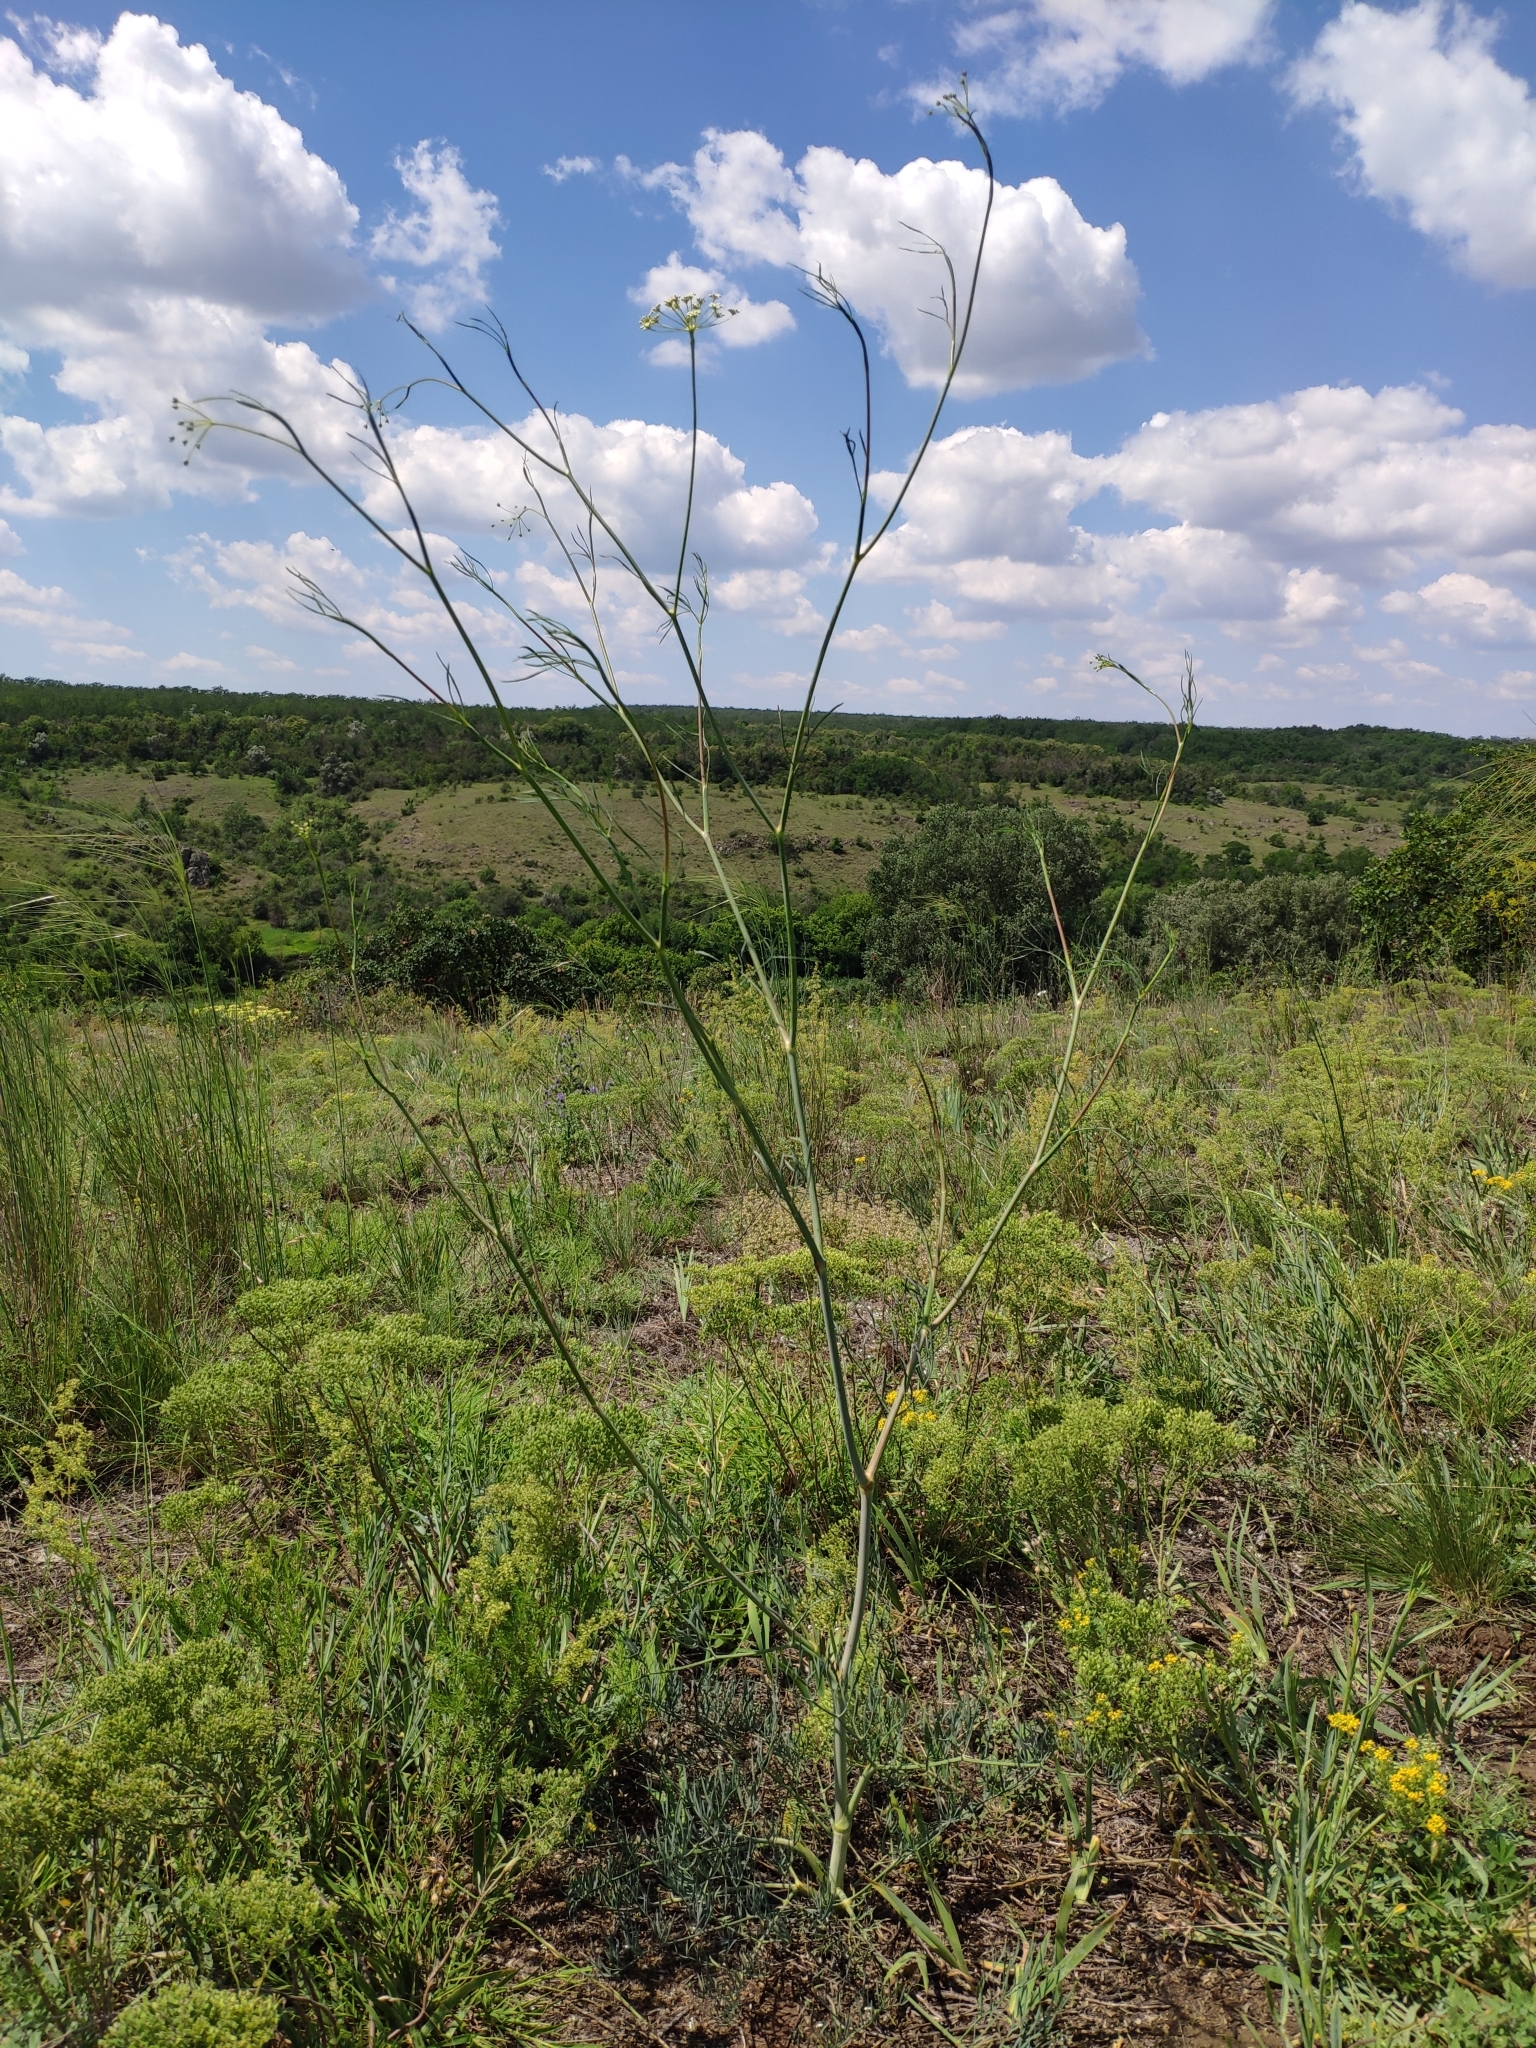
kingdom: Plantae
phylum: Tracheophyta
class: Magnoliopsida
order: Apiales
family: Apiaceae
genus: Seseli
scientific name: Seseli pallasii
